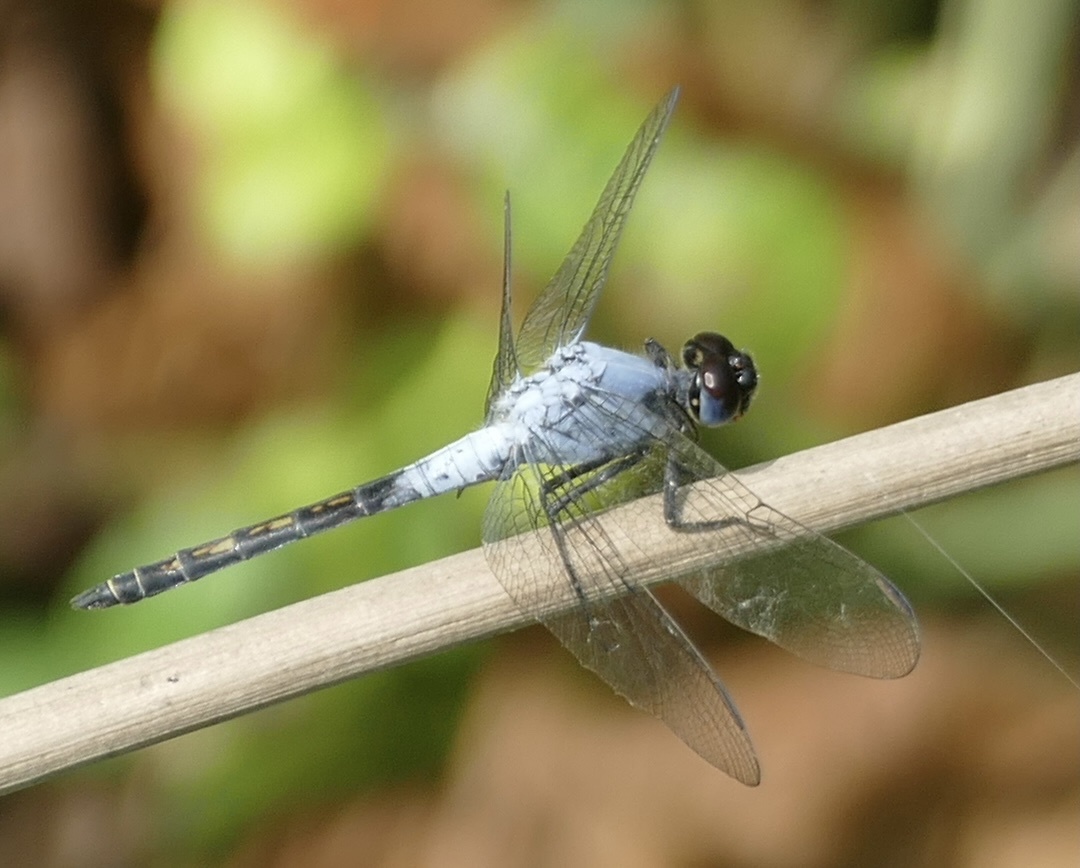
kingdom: Animalia
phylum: Arthropoda
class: Insecta
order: Odonata
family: Libellulidae
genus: Nesciothemis
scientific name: Nesciothemis pujoli
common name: Western blacktail
